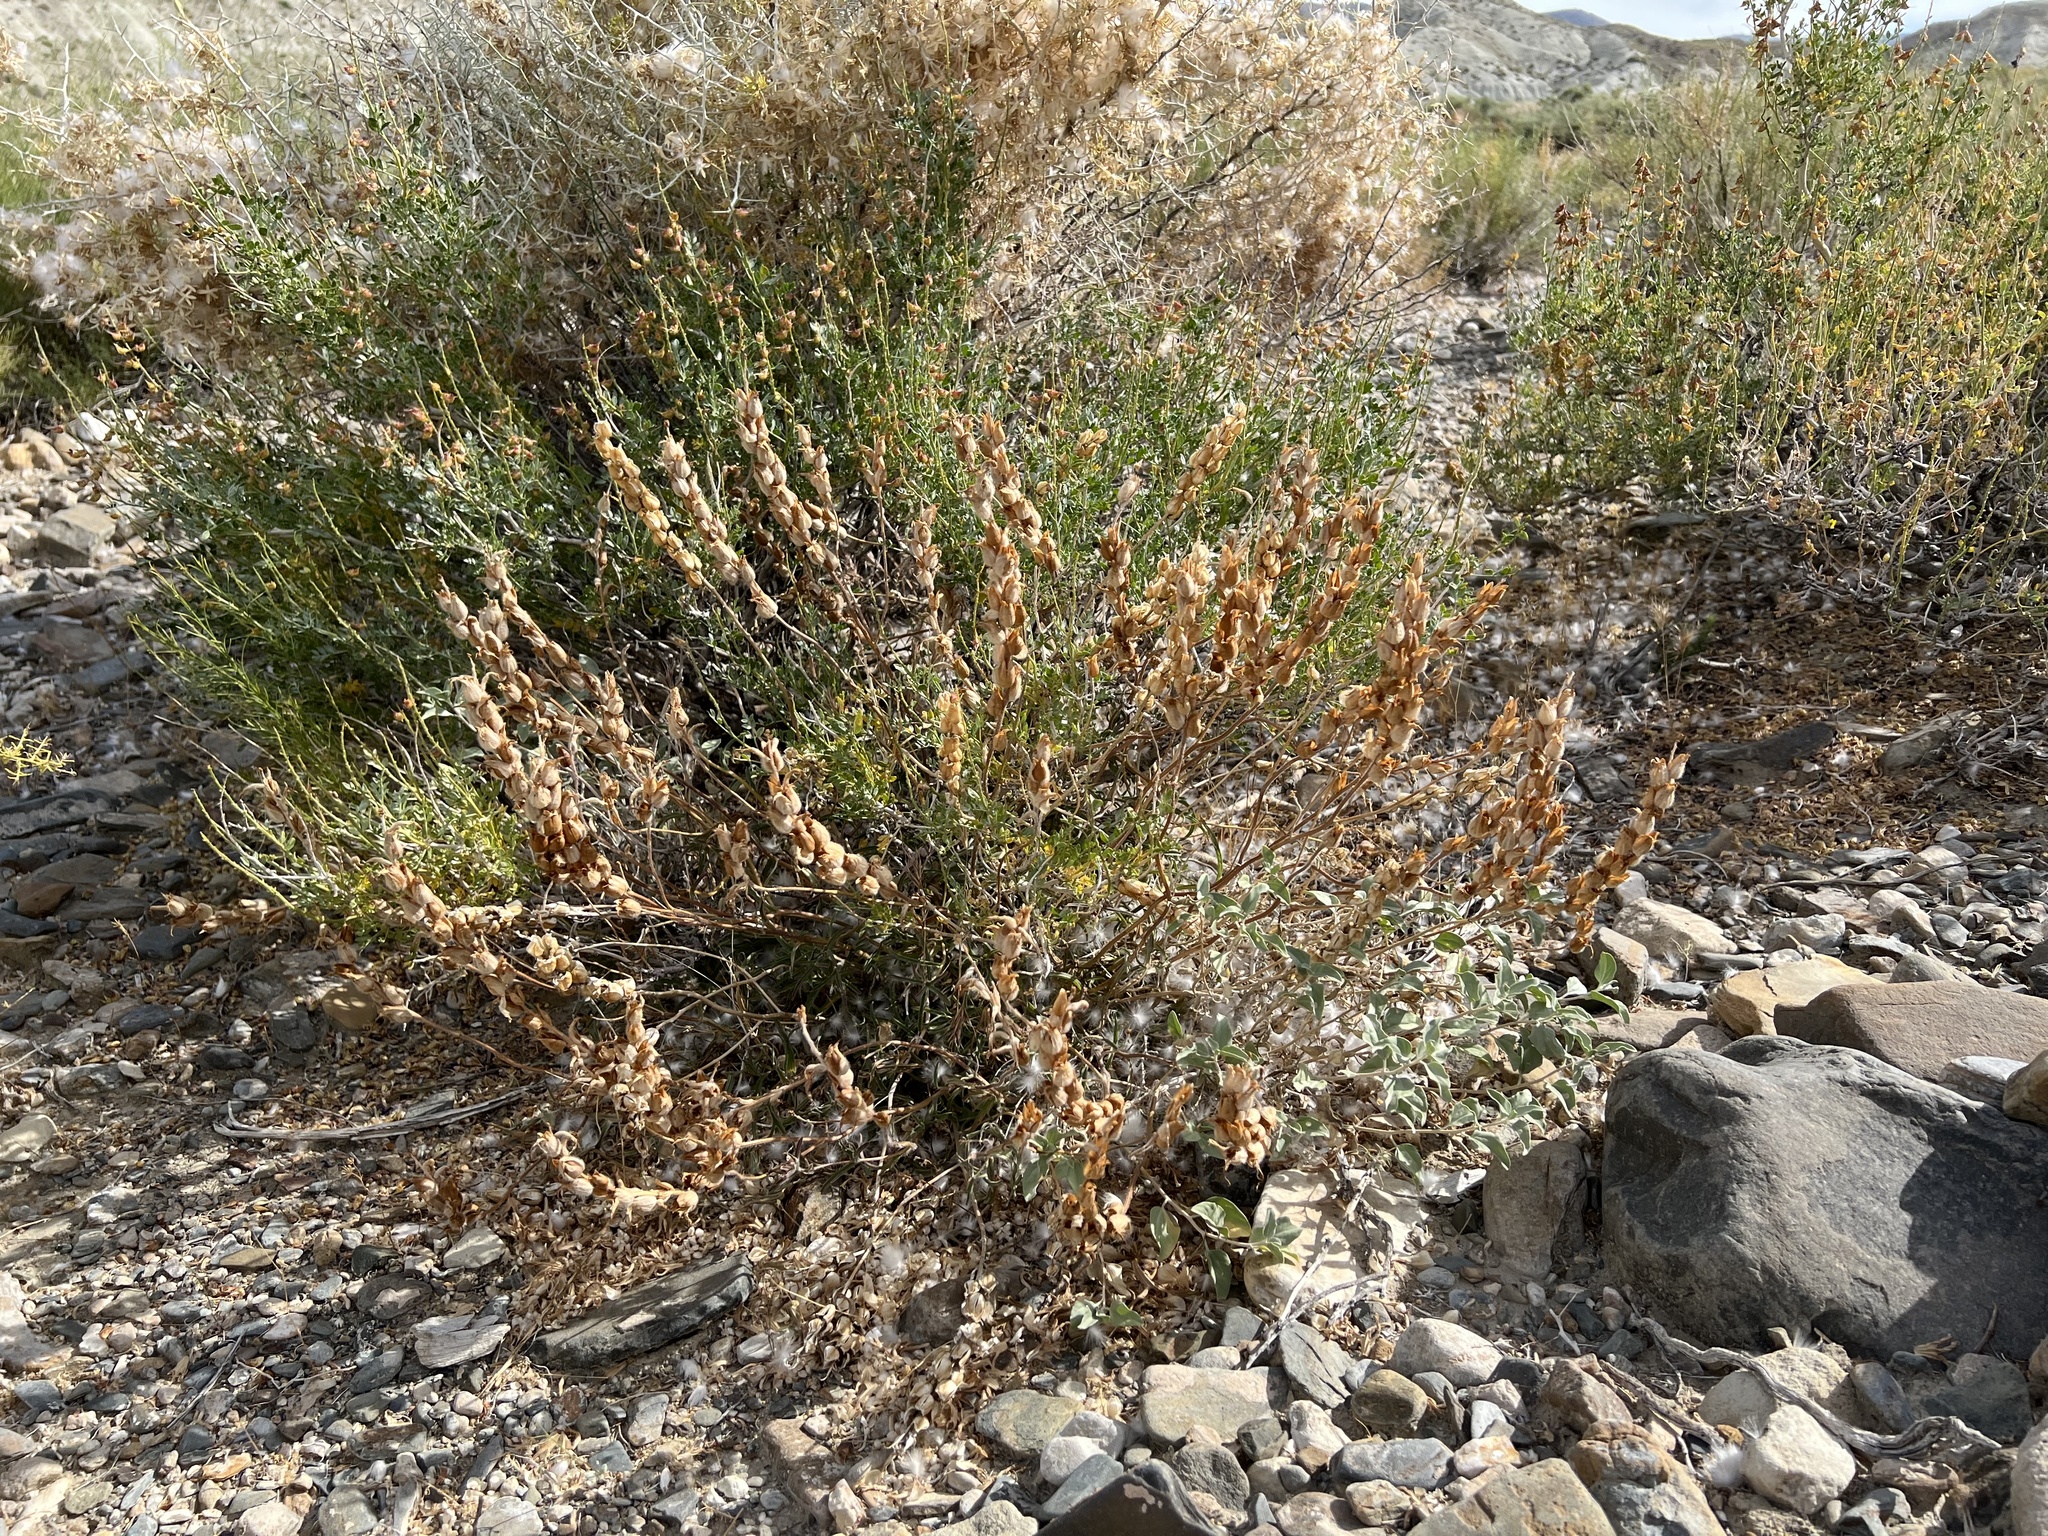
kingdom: Plantae
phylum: Tracheophyta
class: Magnoliopsida
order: Lamiales
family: Orobanchaceae
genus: Castilleja
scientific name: Castilleja chromosa
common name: Desert paintbrush
